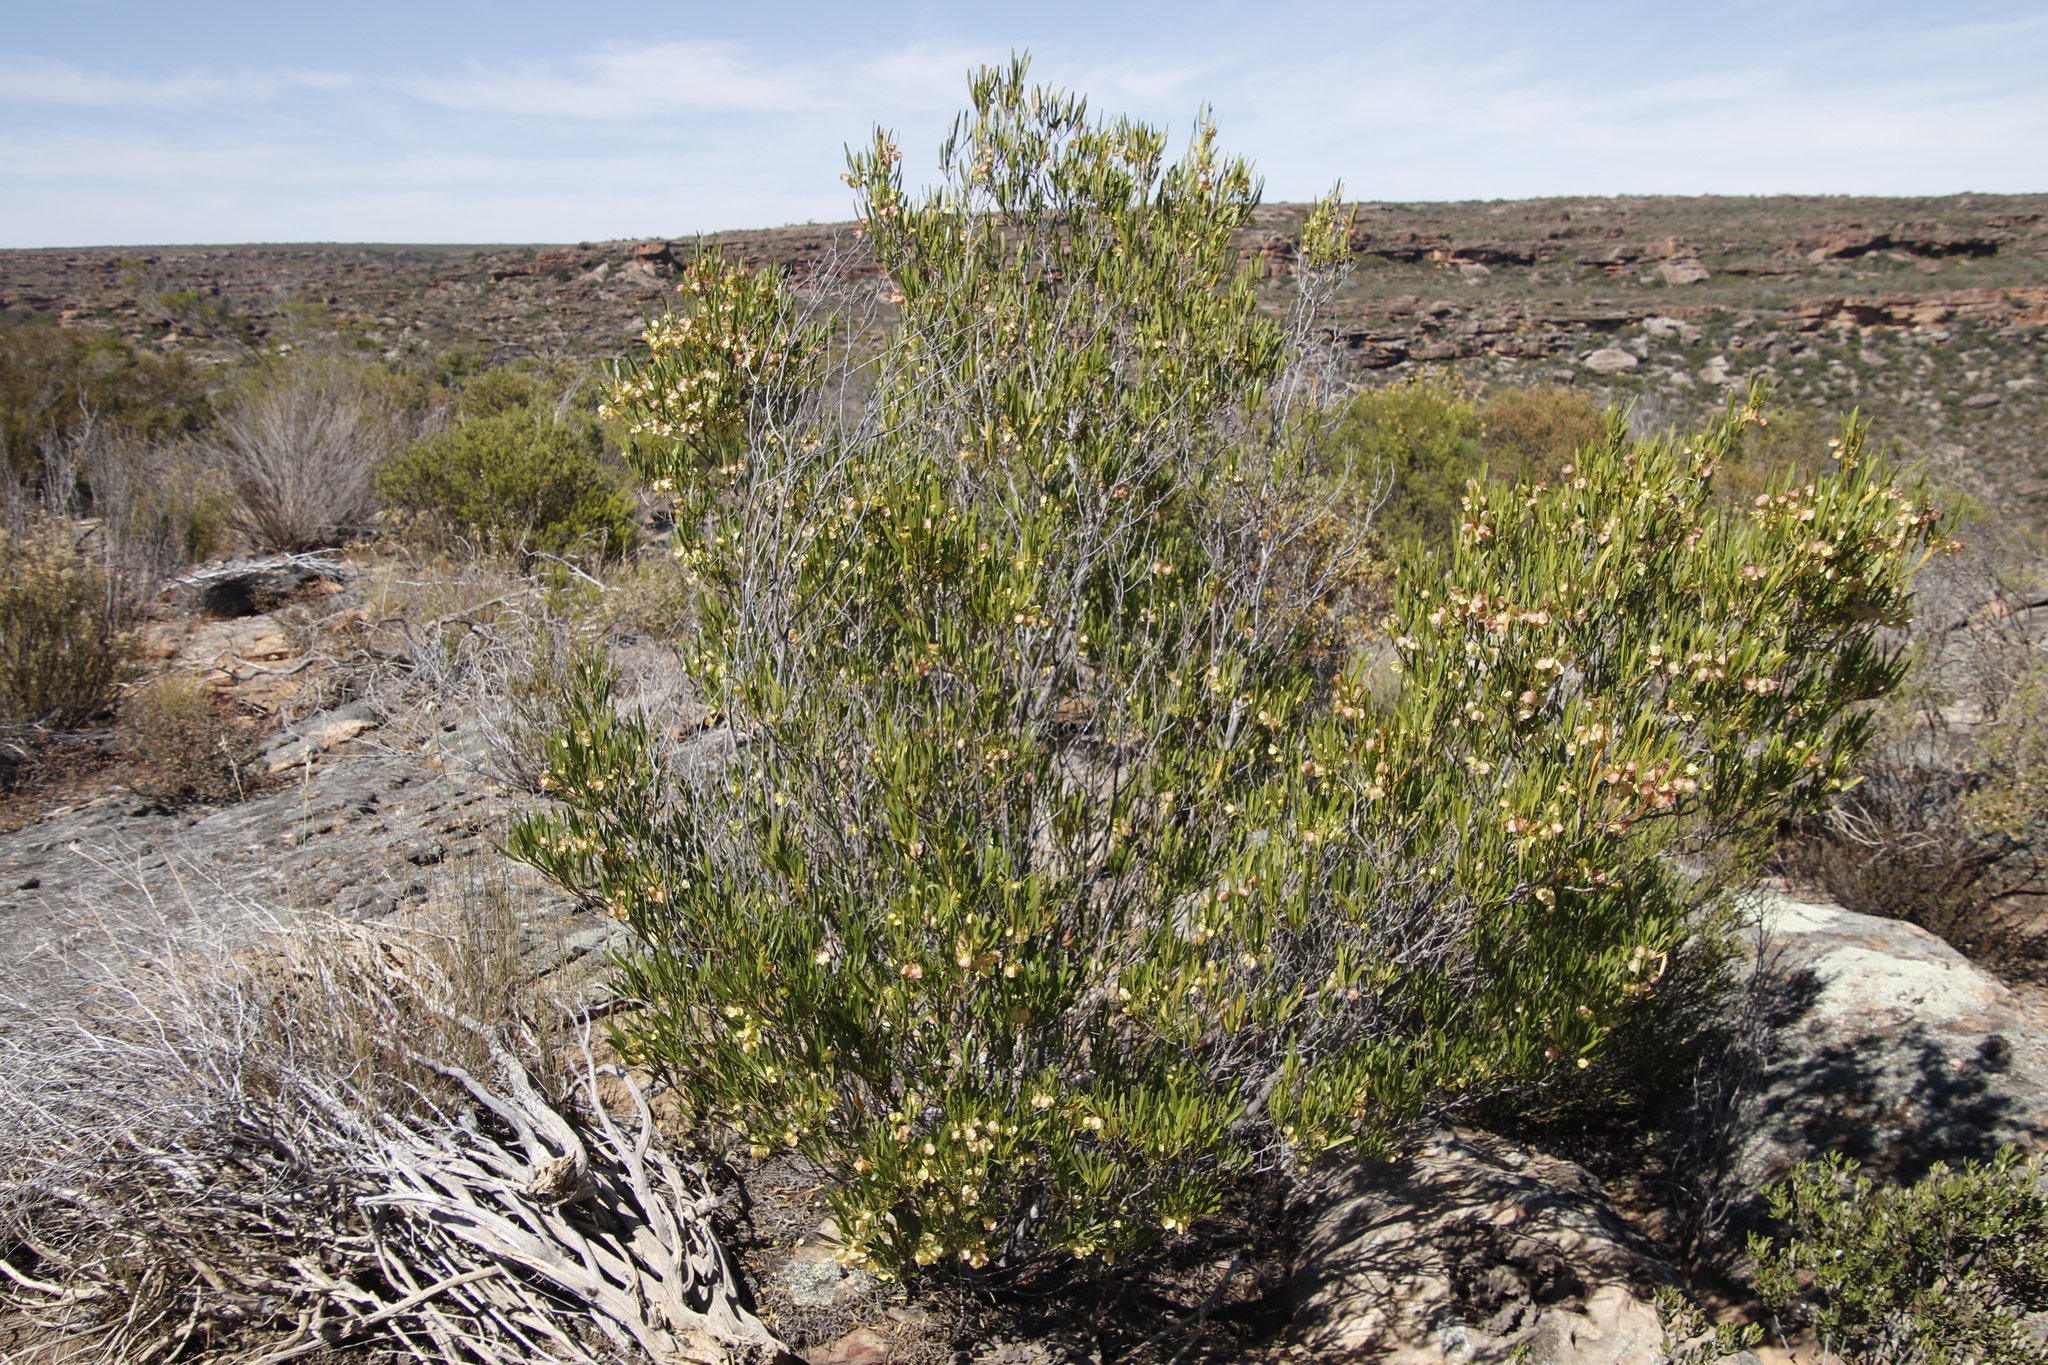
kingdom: Plantae
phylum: Tracheophyta
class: Magnoliopsida
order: Sapindales
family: Sapindaceae
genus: Dodonaea
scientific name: Dodonaea viscosa
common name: Hopbush
